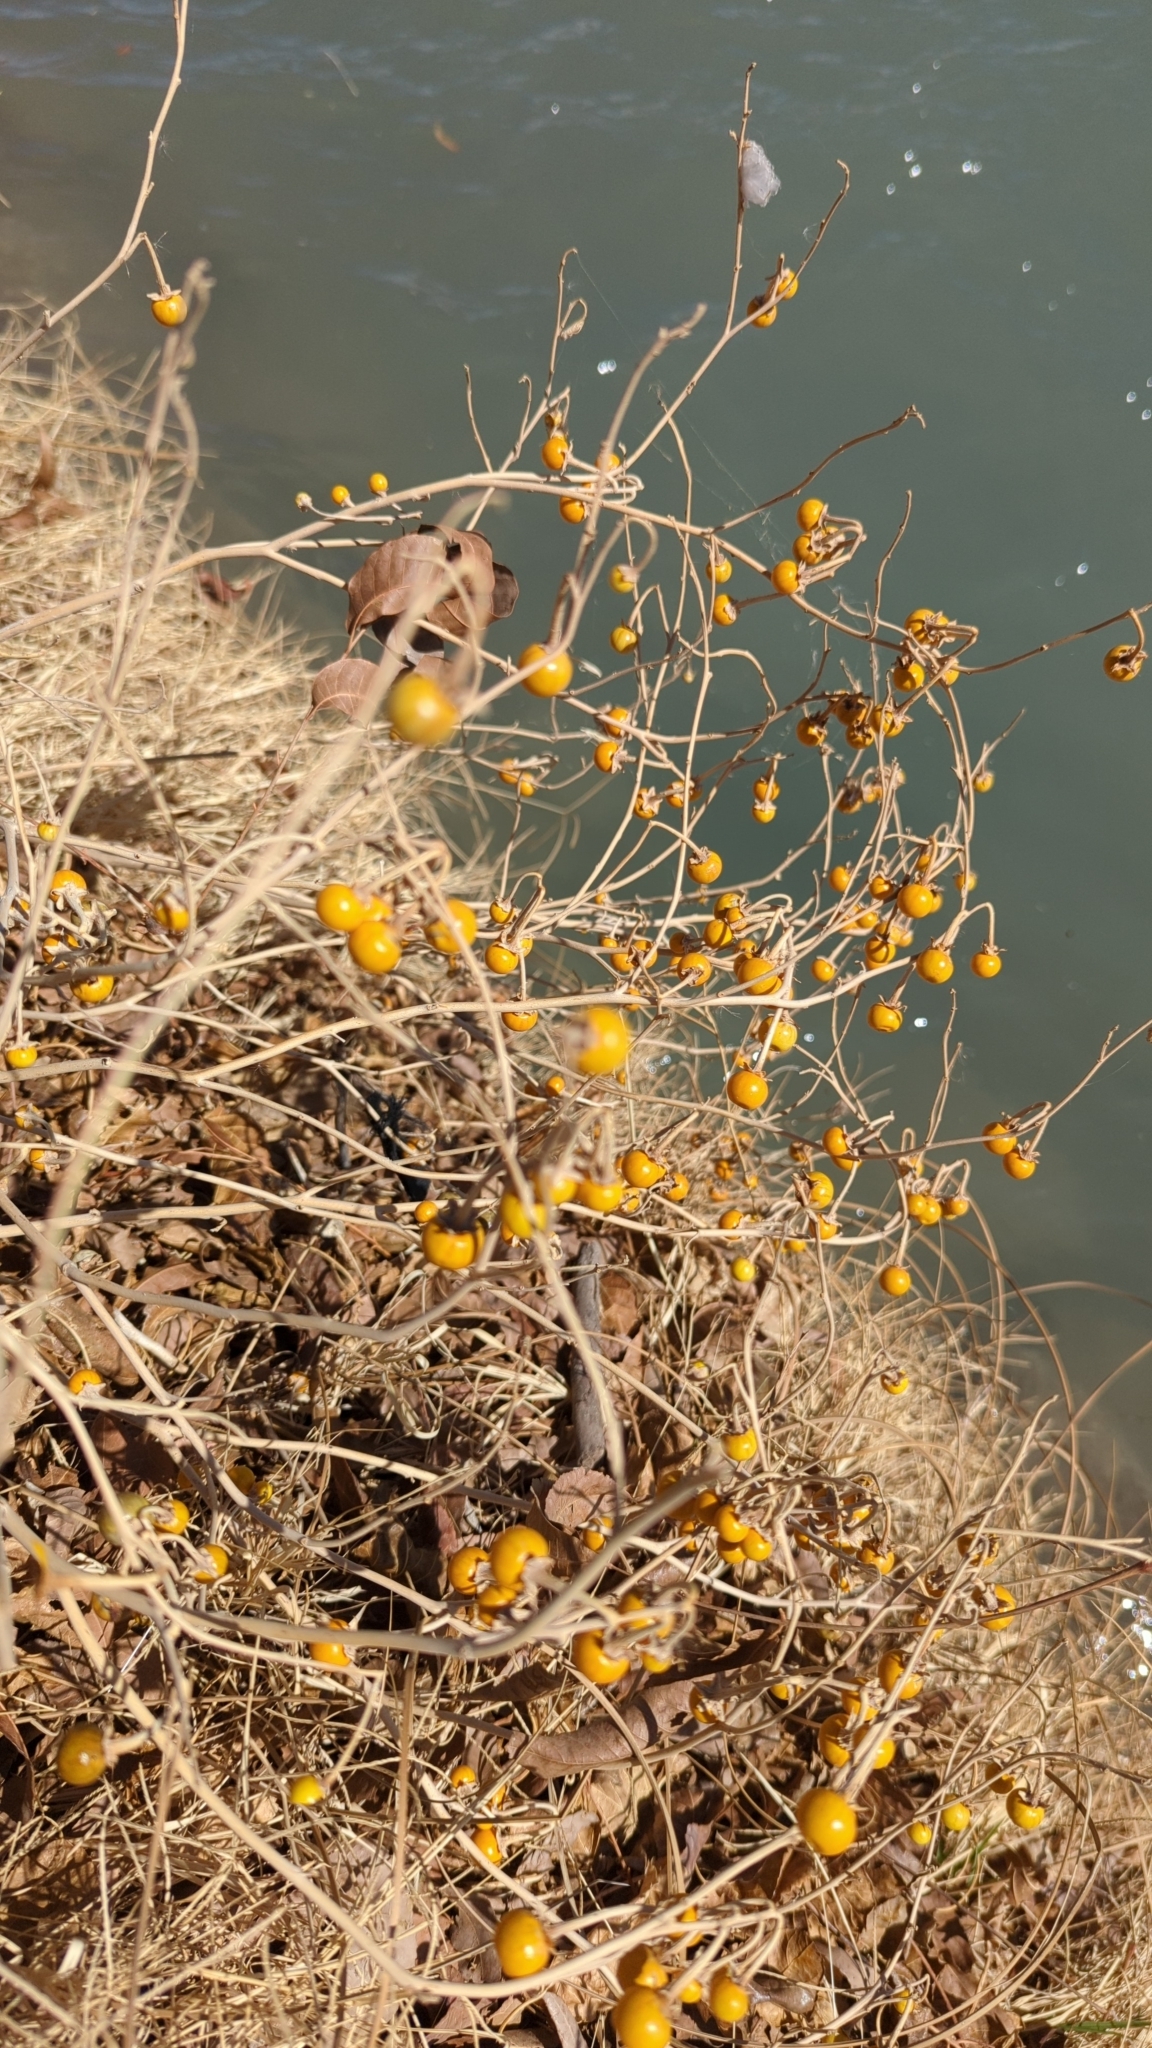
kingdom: Plantae
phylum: Tracheophyta
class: Magnoliopsida
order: Solanales
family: Solanaceae
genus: Solanum
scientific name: Solanum elaeagnifolium
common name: Silverleaf nightshade
